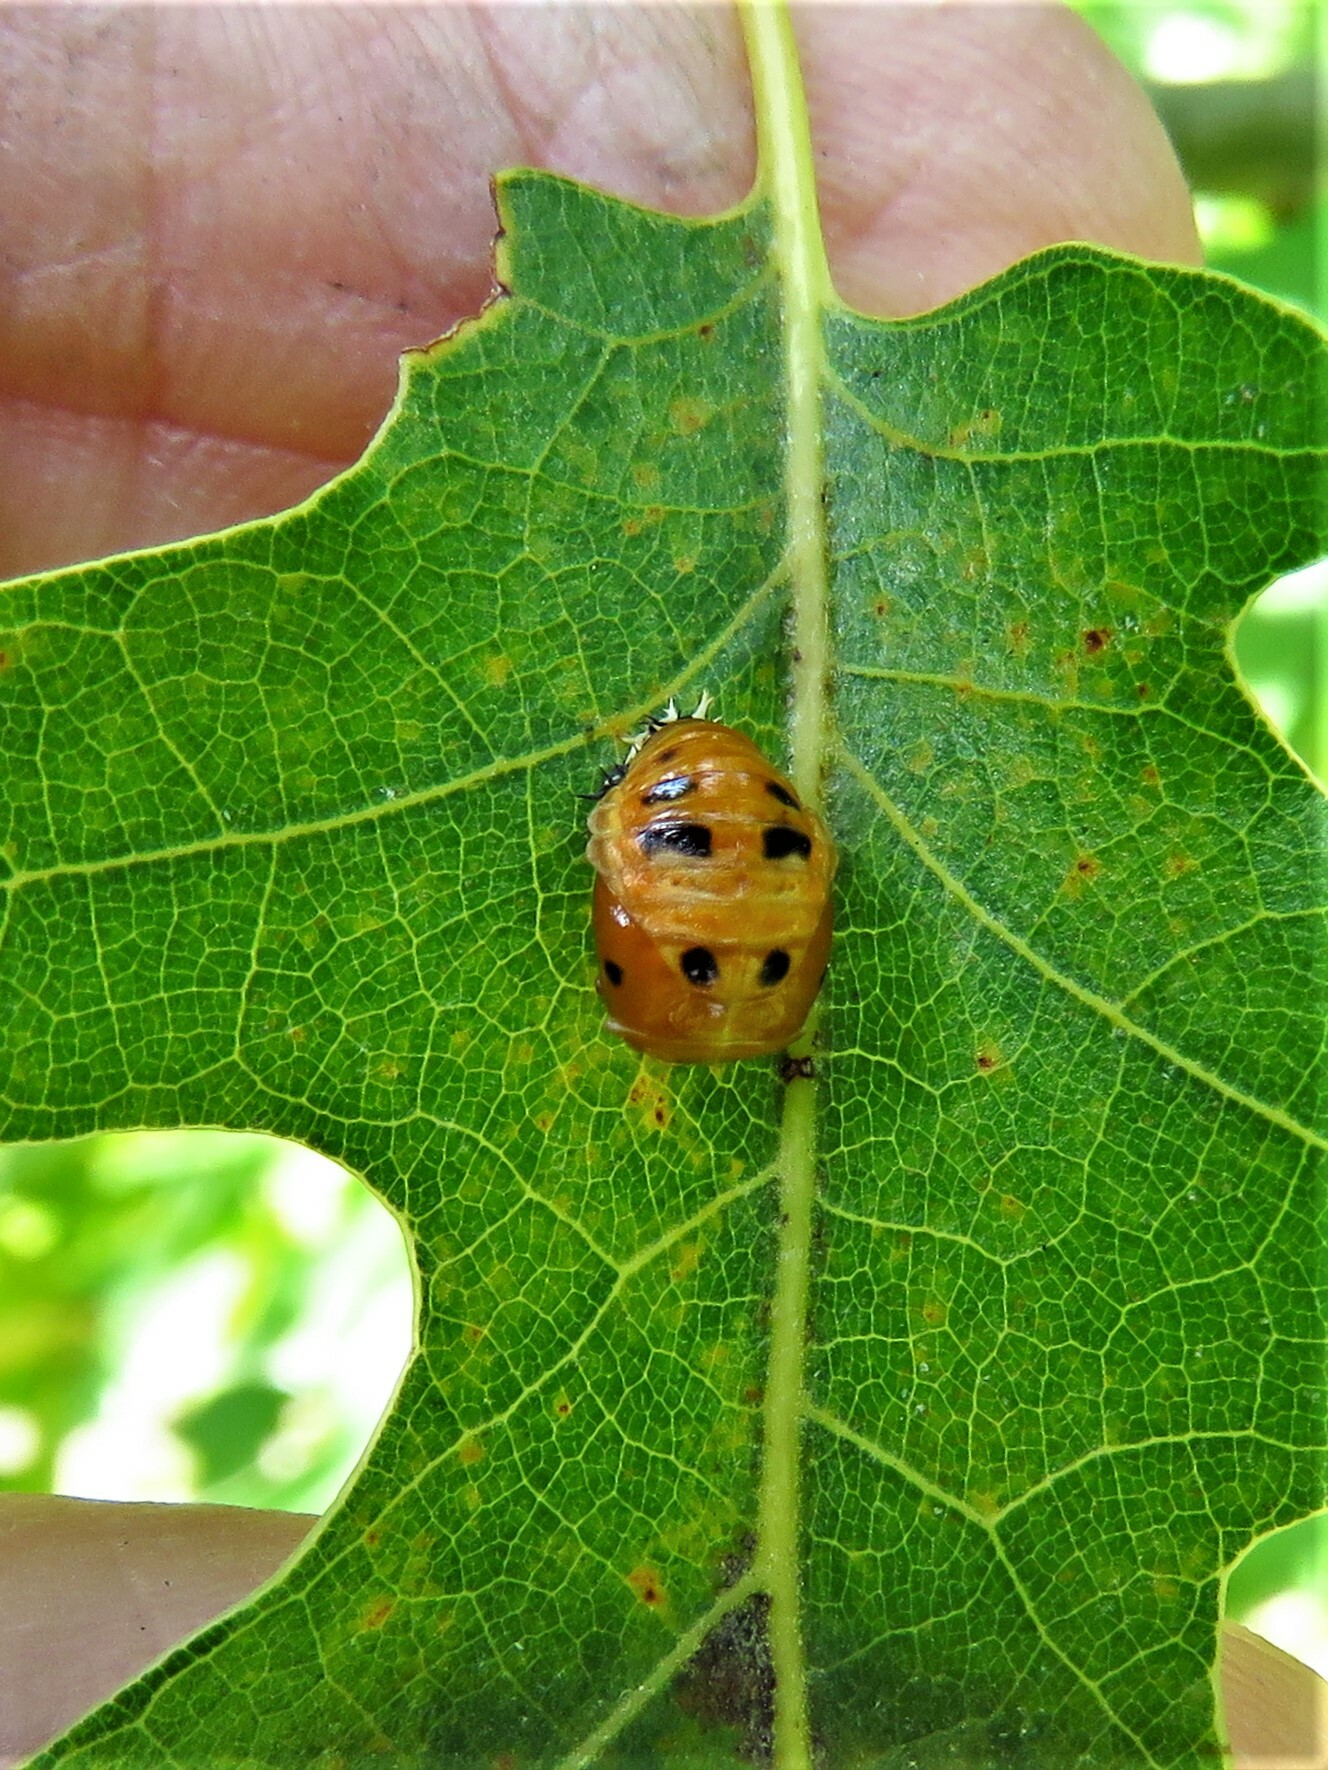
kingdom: Animalia
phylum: Arthropoda
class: Insecta
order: Coleoptera
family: Coccinellidae
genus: Harmonia
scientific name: Harmonia axyridis
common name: Harlequin ladybird
